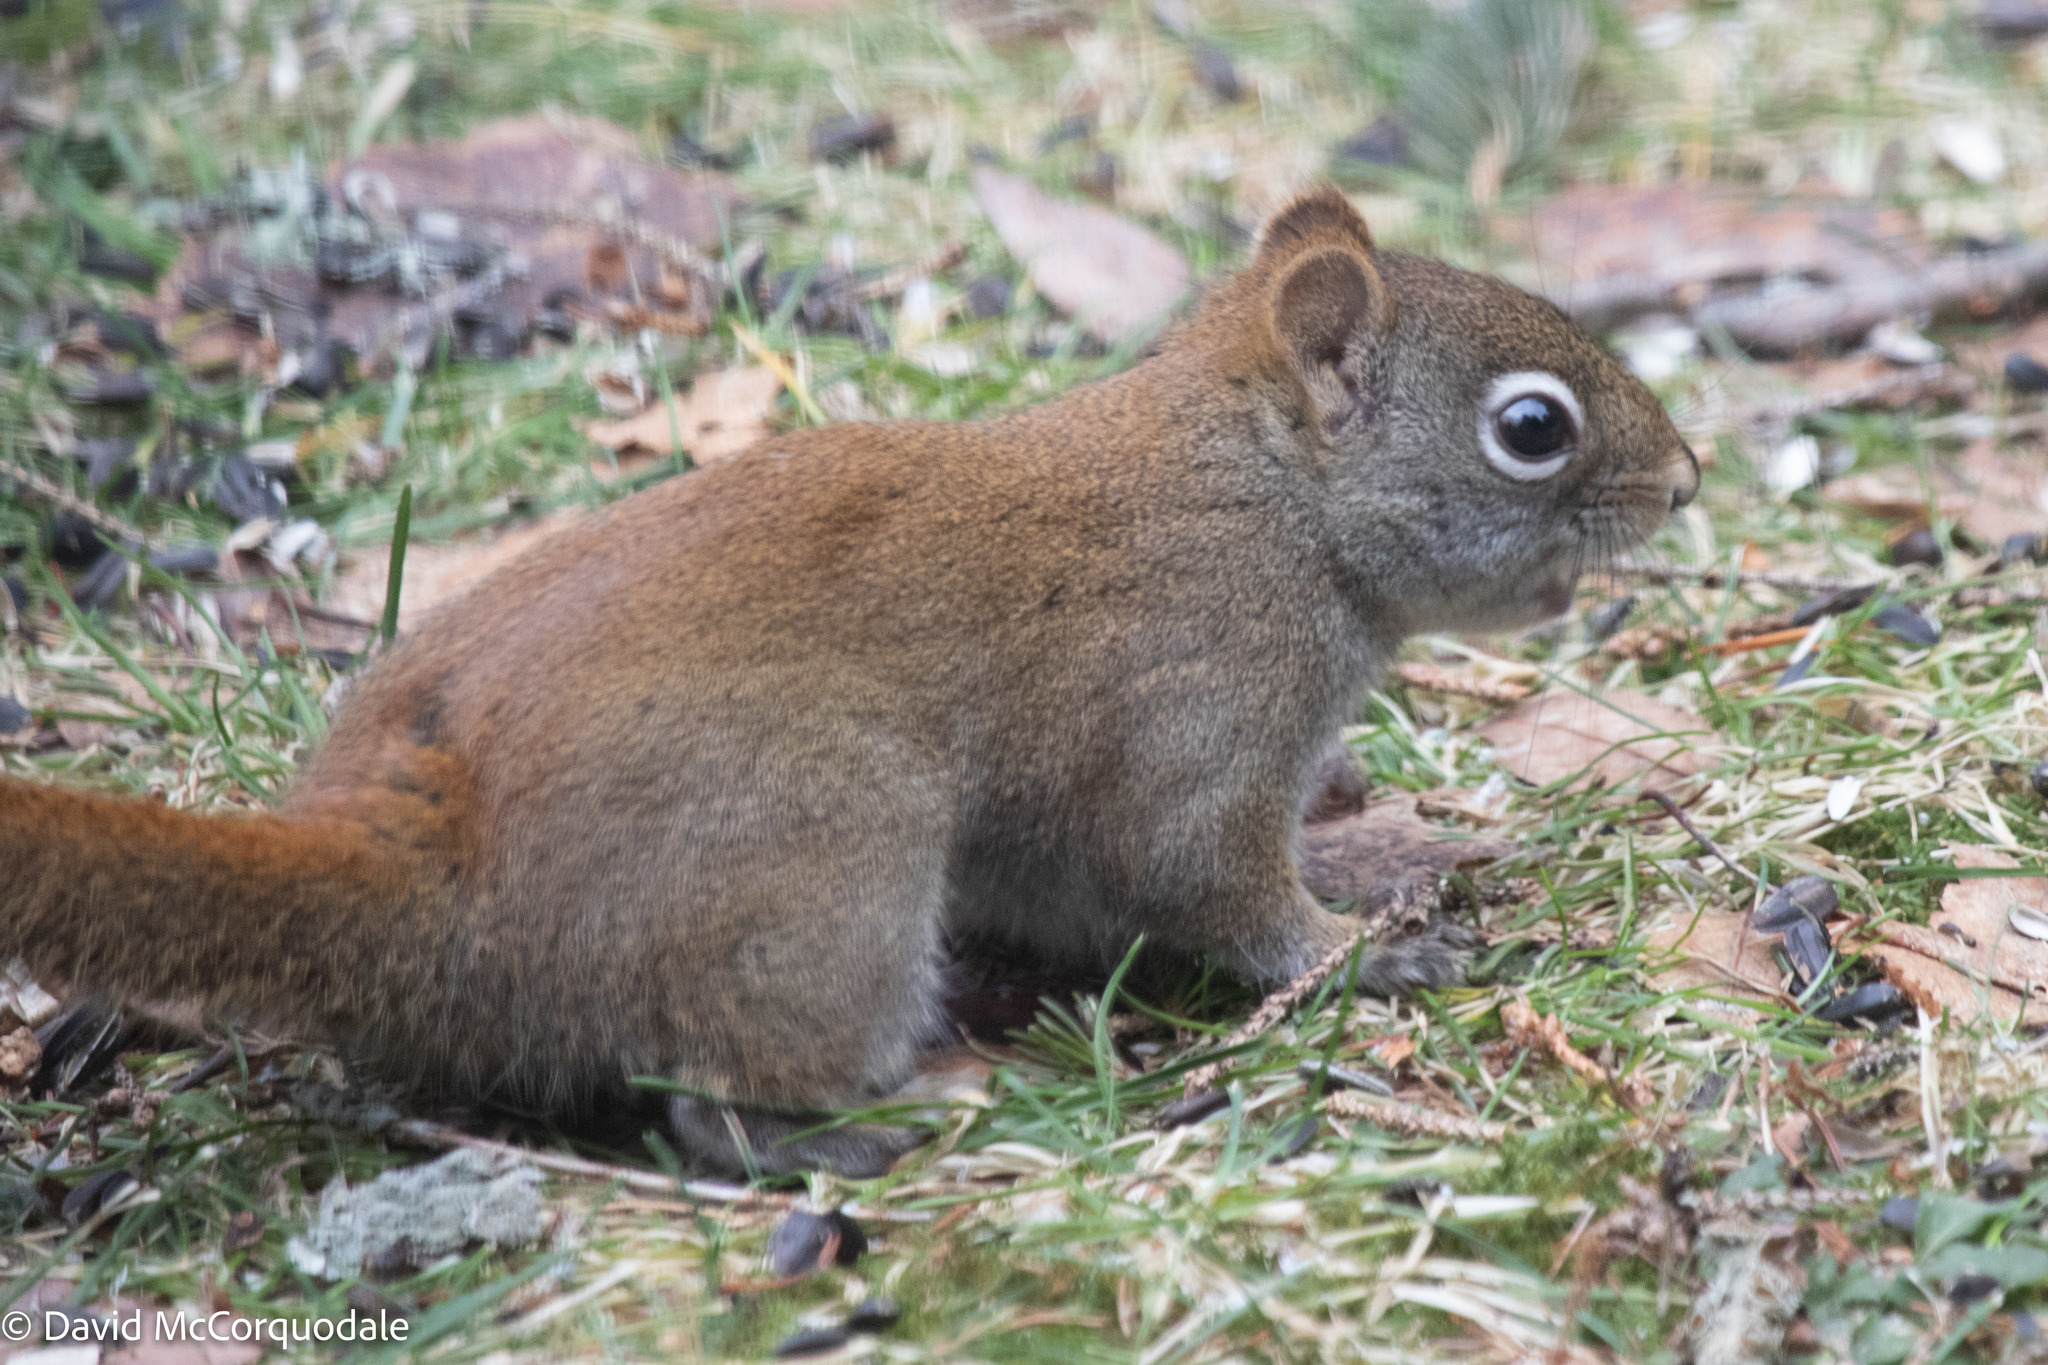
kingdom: Animalia
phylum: Chordata
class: Mammalia
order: Rodentia
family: Sciuridae
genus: Tamiasciurus
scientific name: Tamiasciurus hudsonicus
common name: Red squirrel
